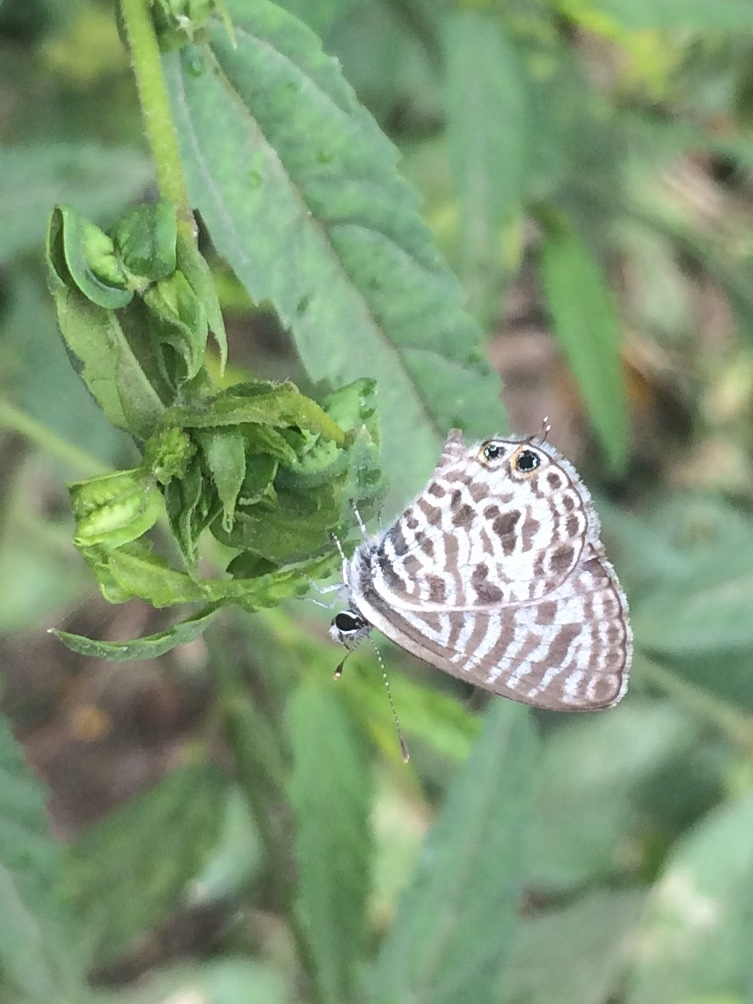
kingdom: Animalia
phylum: Arthropoda
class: Insecta
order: Lepidoptera
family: Lycaenidae
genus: Leptotes
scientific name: Leptotes plinius
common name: Zebra blue
